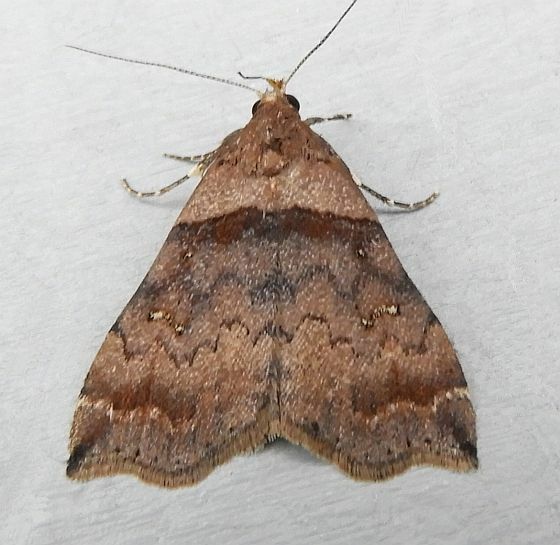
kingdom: Animalia
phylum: Arthropoda
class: Insecta
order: Lepidoptera
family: Erebidae
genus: Lascoria
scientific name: Lascoria ambigualis
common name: Ambiguous moth
